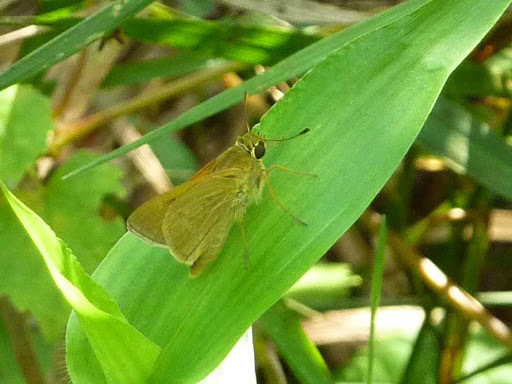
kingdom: Animalia
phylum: Arthropoda
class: Insecta
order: Lepidoptera
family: Hesperiidae
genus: Polites
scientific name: Polites themistocles
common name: Tawny-edged skipper
